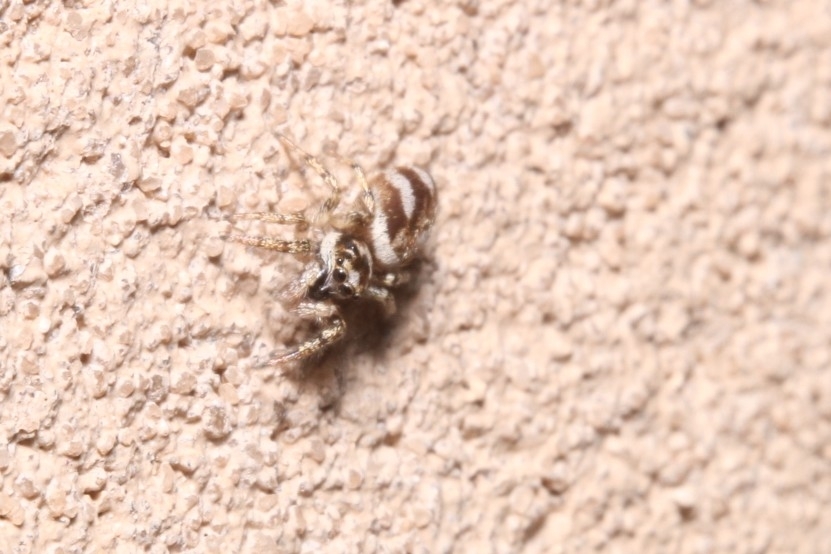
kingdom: Animalia
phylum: Arthropoda
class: Arachnida
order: Araneae
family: Salticidae
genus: Salticus
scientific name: Salticus scenicus
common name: Zebra jumper
